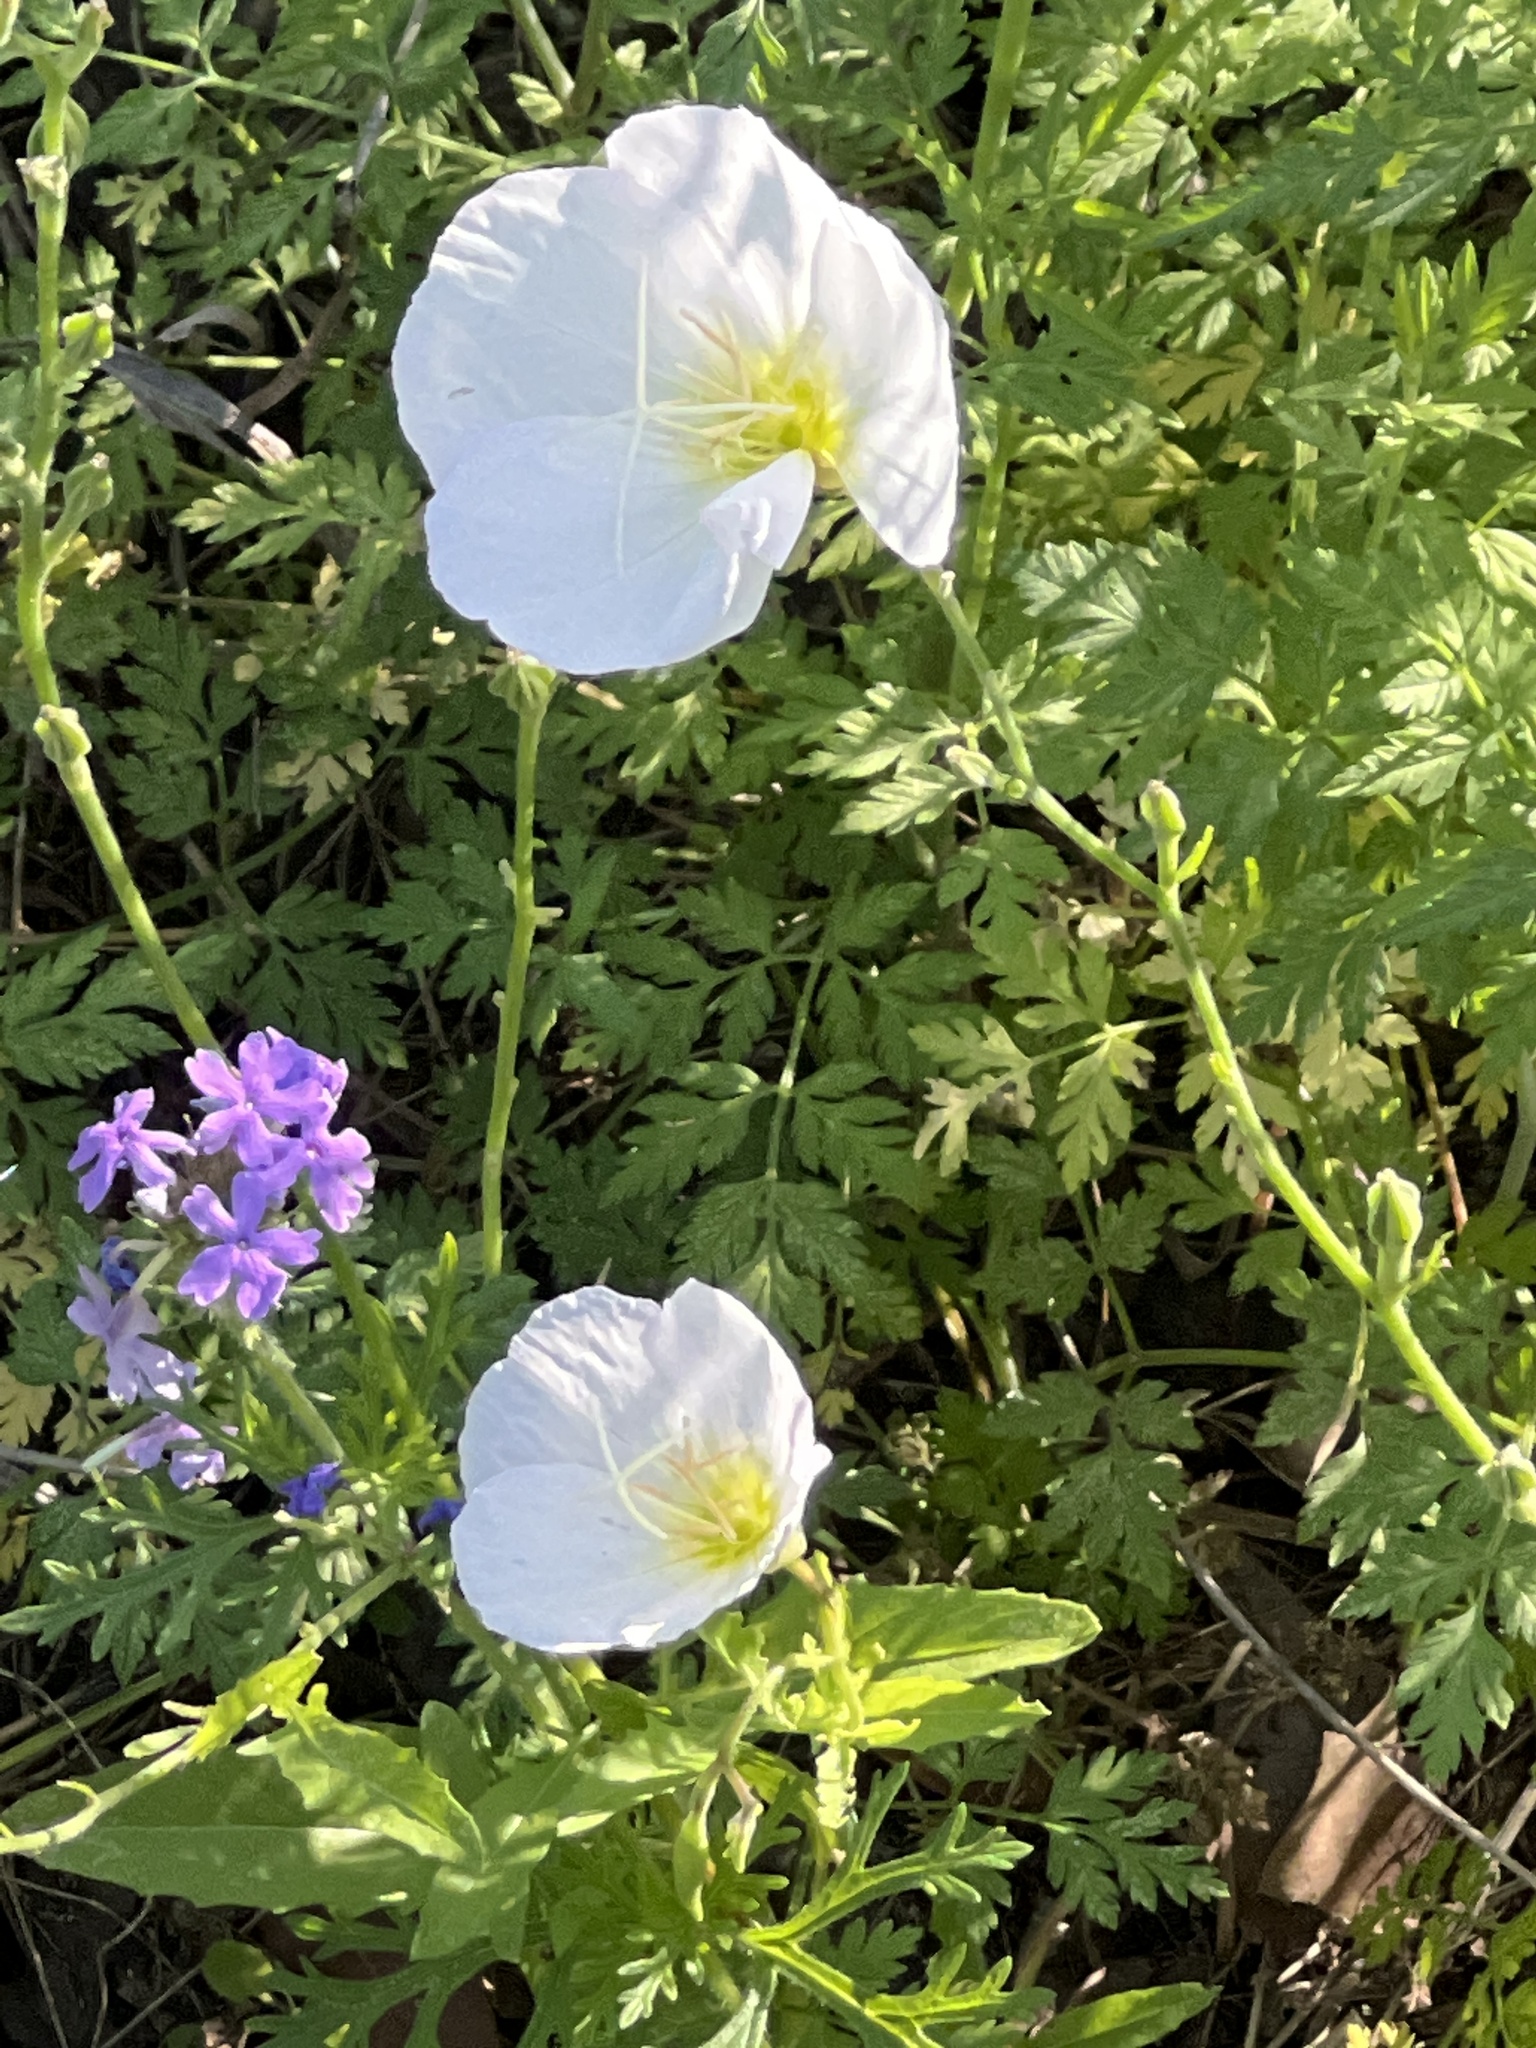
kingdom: Plantae
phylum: Tracheophyta
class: Magnoliopsida
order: Myrtales
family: Onagraceae
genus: Oenothera
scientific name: Oenothera speciosa
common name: White evening-primrose
